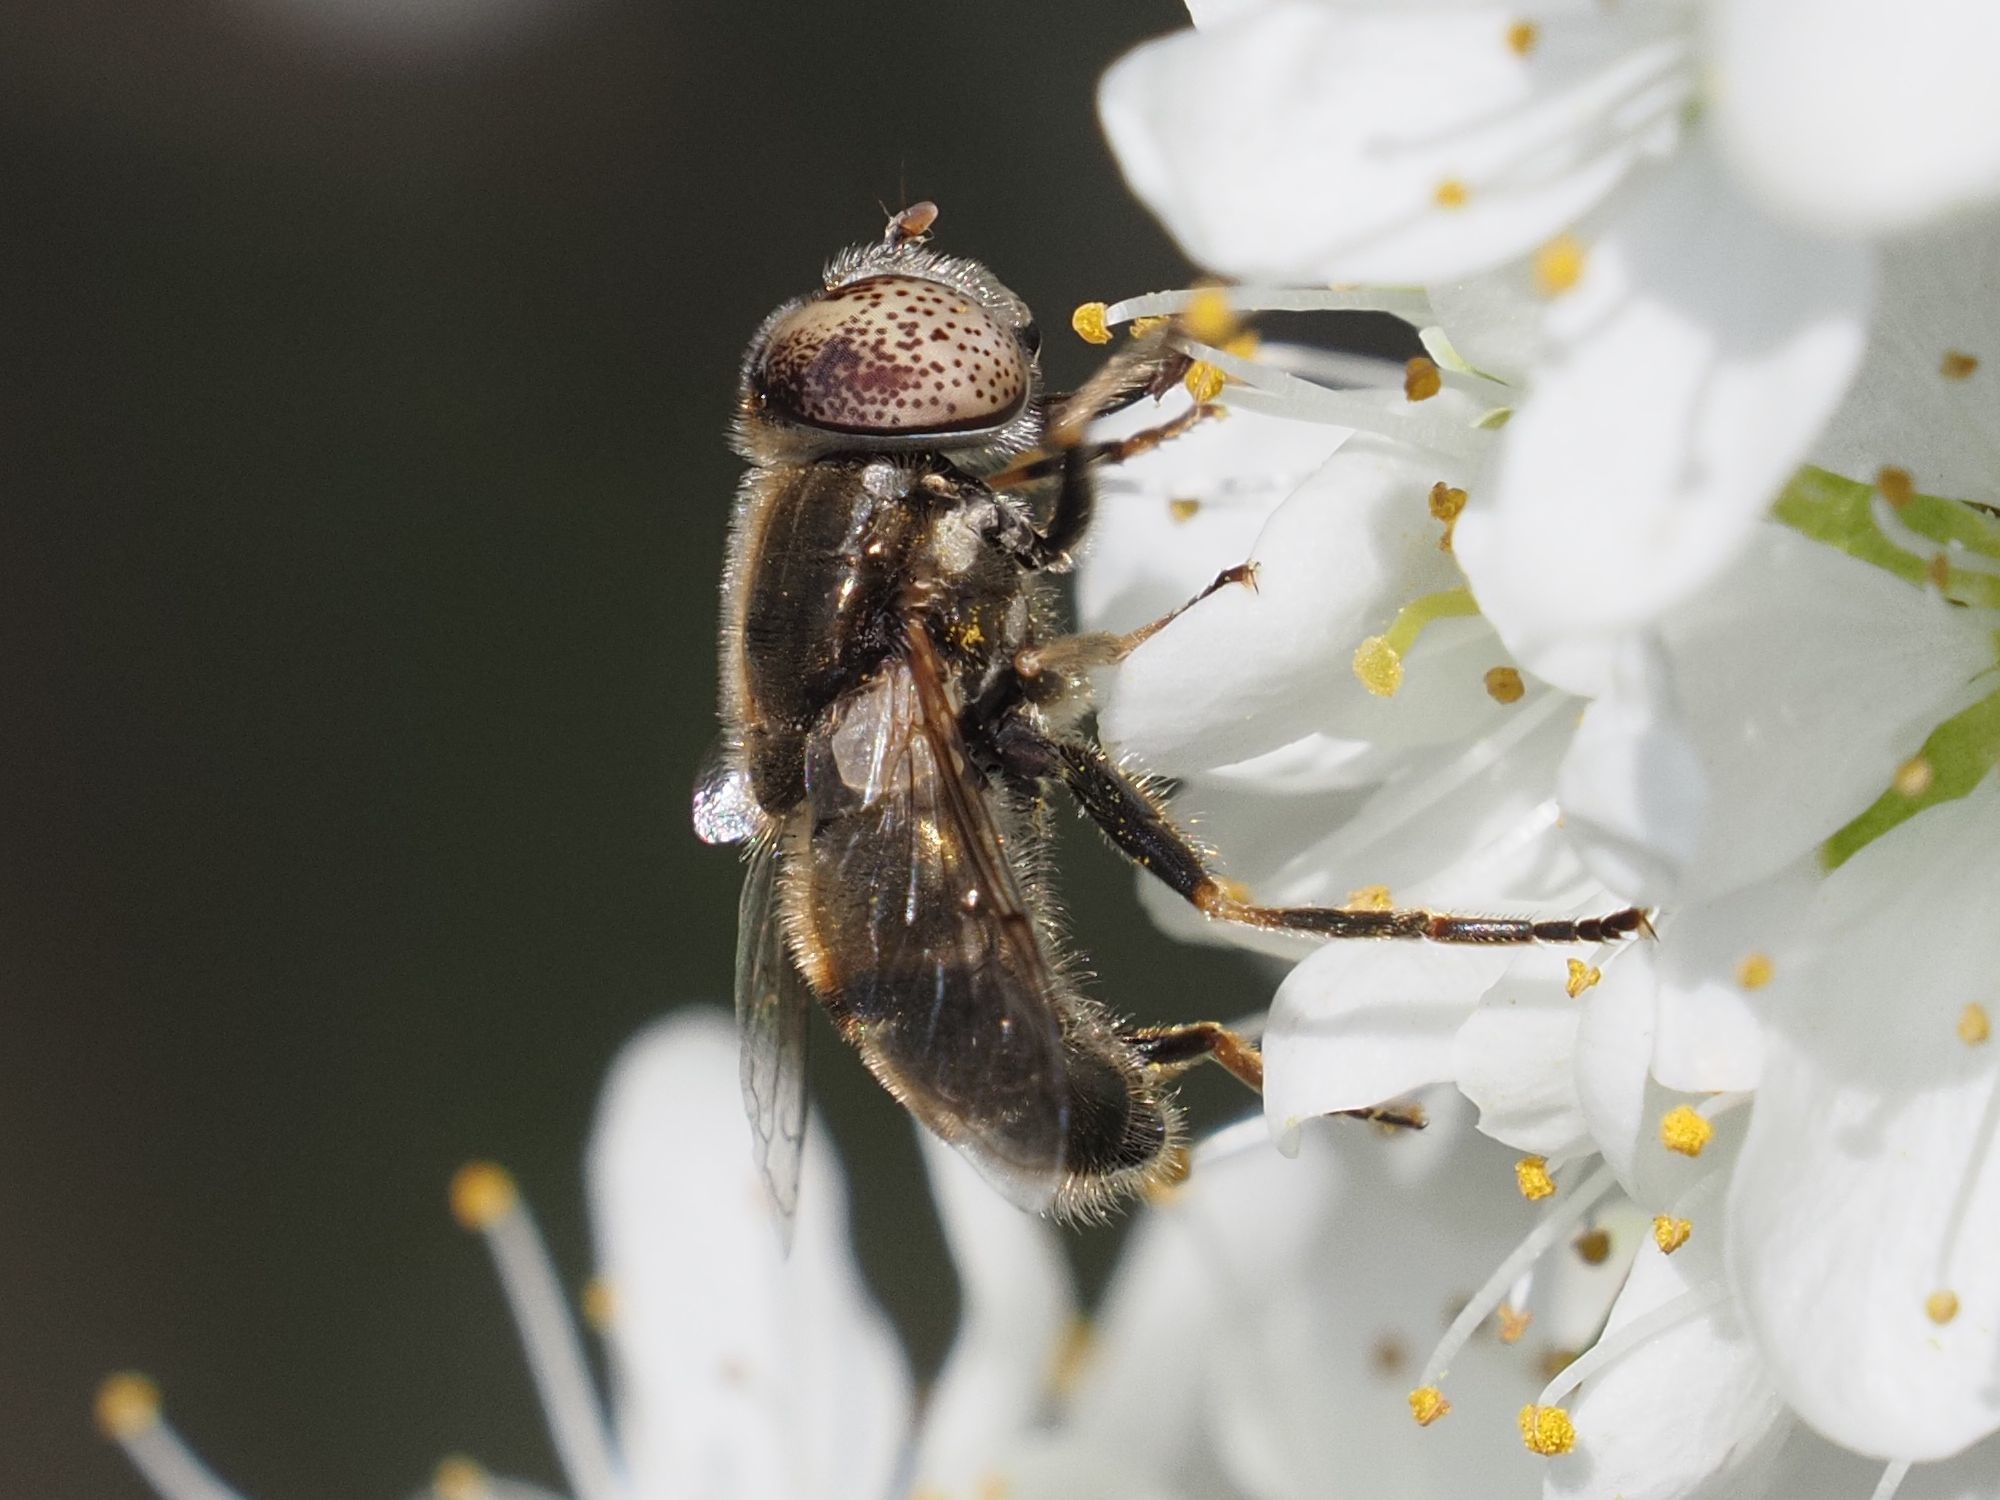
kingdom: Animalia
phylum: Arthropoda
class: Insecta
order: Diptera
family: Syrphidae
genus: Eristalinus
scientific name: Eristalinus aeneus
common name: Syrphid fly
